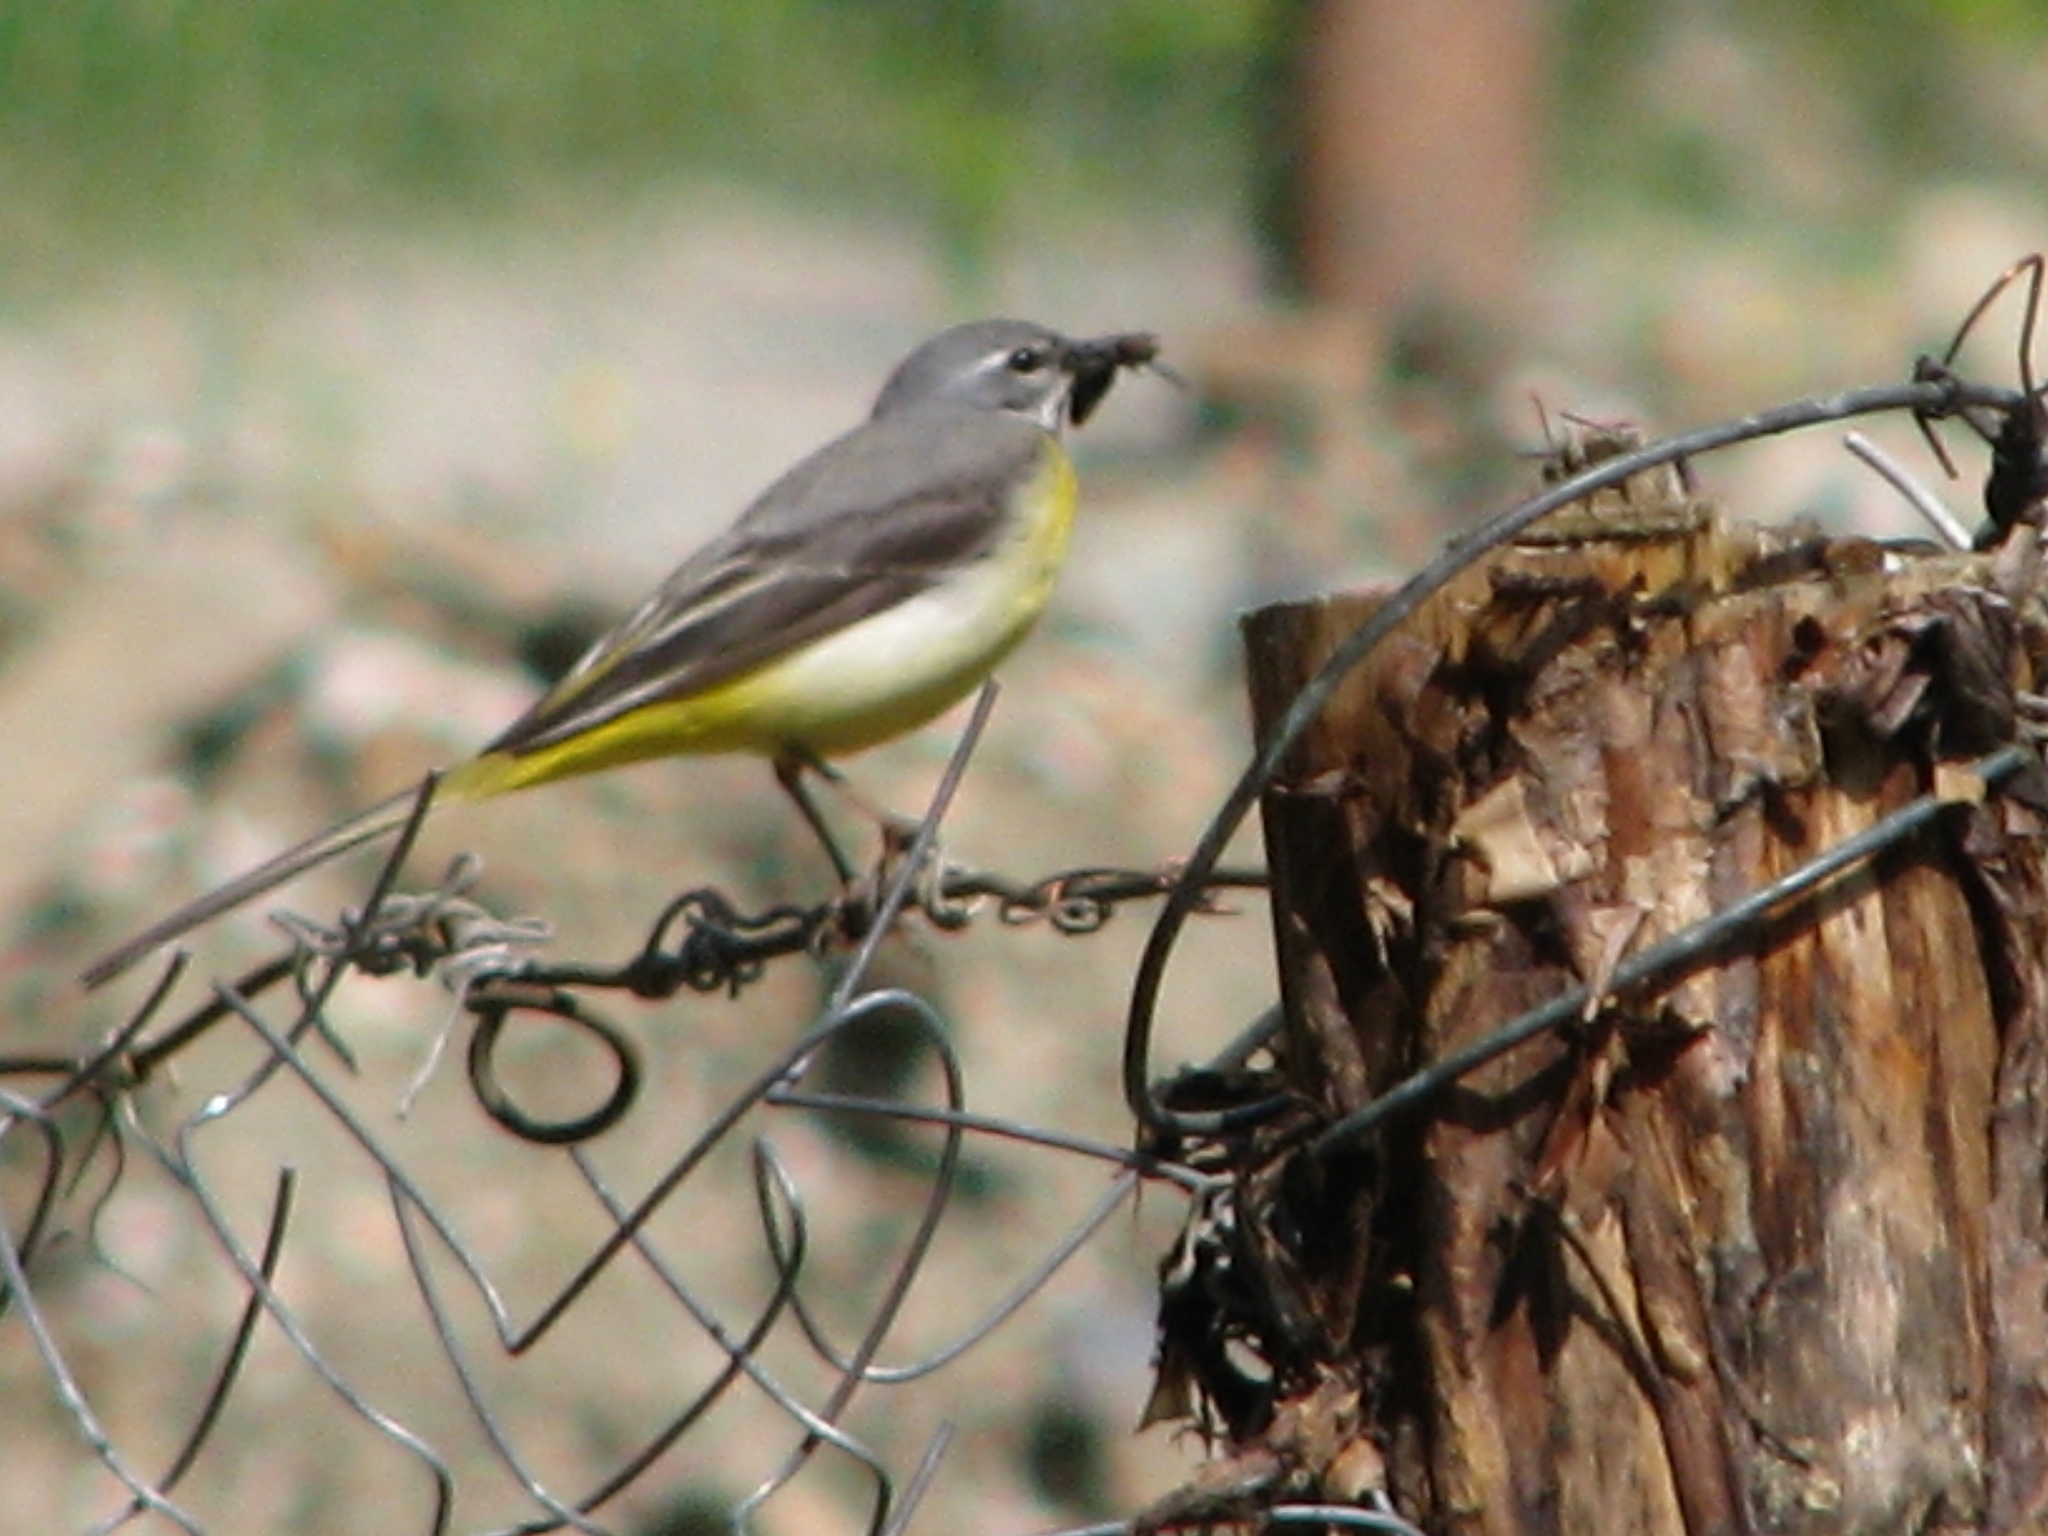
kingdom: Animalia
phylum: Chordata
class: Aves
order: Passeriformes
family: Motacillidae
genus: Motacilla
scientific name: Motacilla cinerea
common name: Grey wagtail
